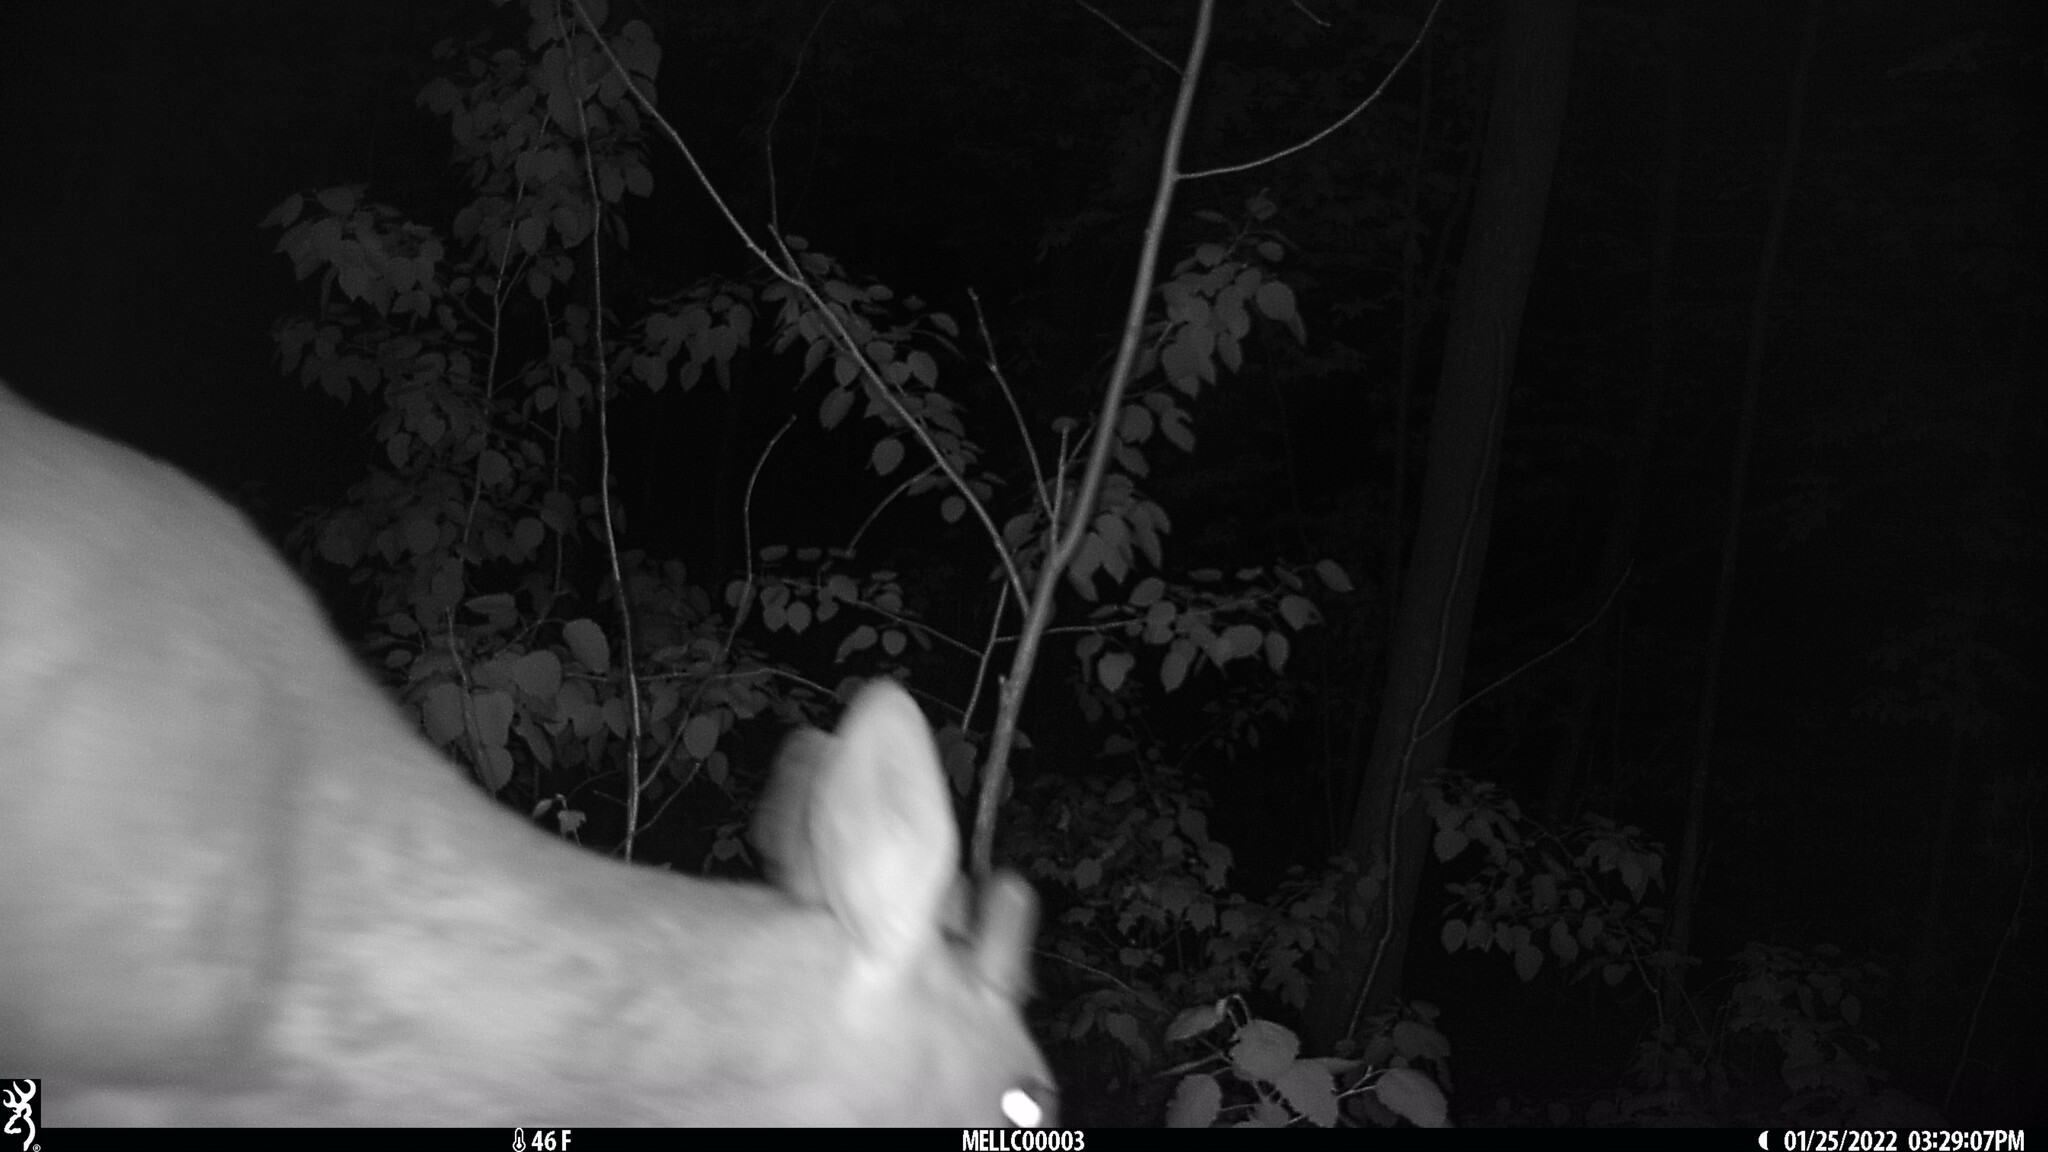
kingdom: Animalia
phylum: Chordata
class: Mammalia
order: Artiodactyla
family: Cervidae
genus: Odocoileus
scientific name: Odocoileus virginianus
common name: White-tailed deer
